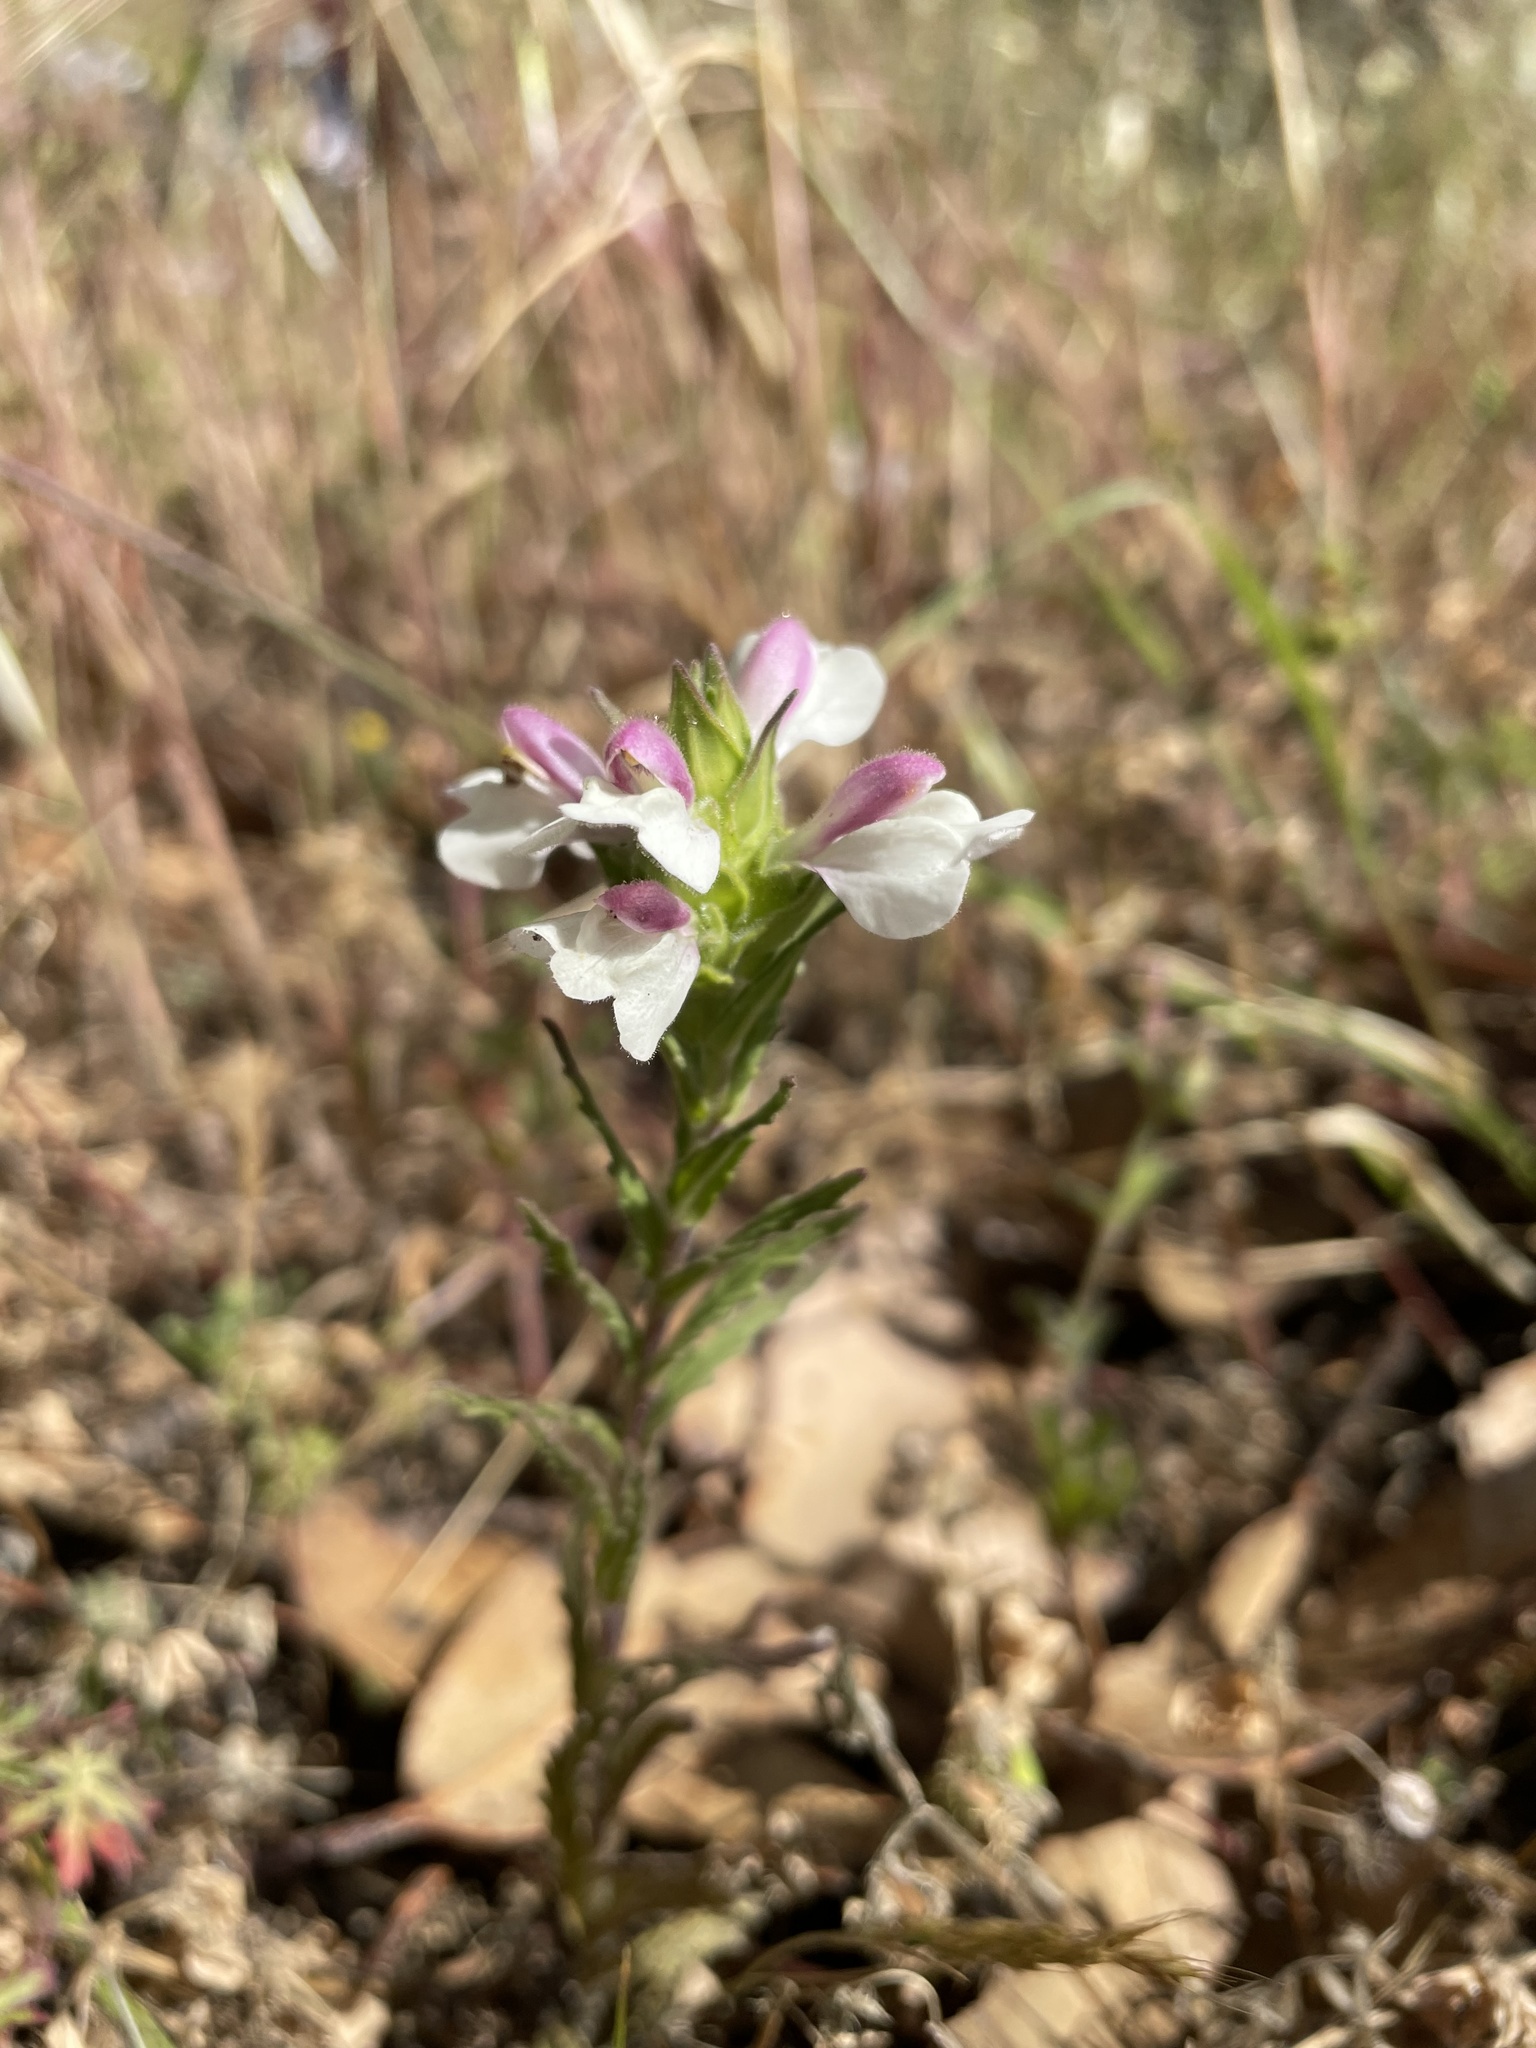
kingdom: Plantae
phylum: Tracheophyta
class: Magnoliopsida
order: Lamiales
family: Orobanchaceae
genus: Bellardia
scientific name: Bellardia trixago
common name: Mediterranean lineseed
